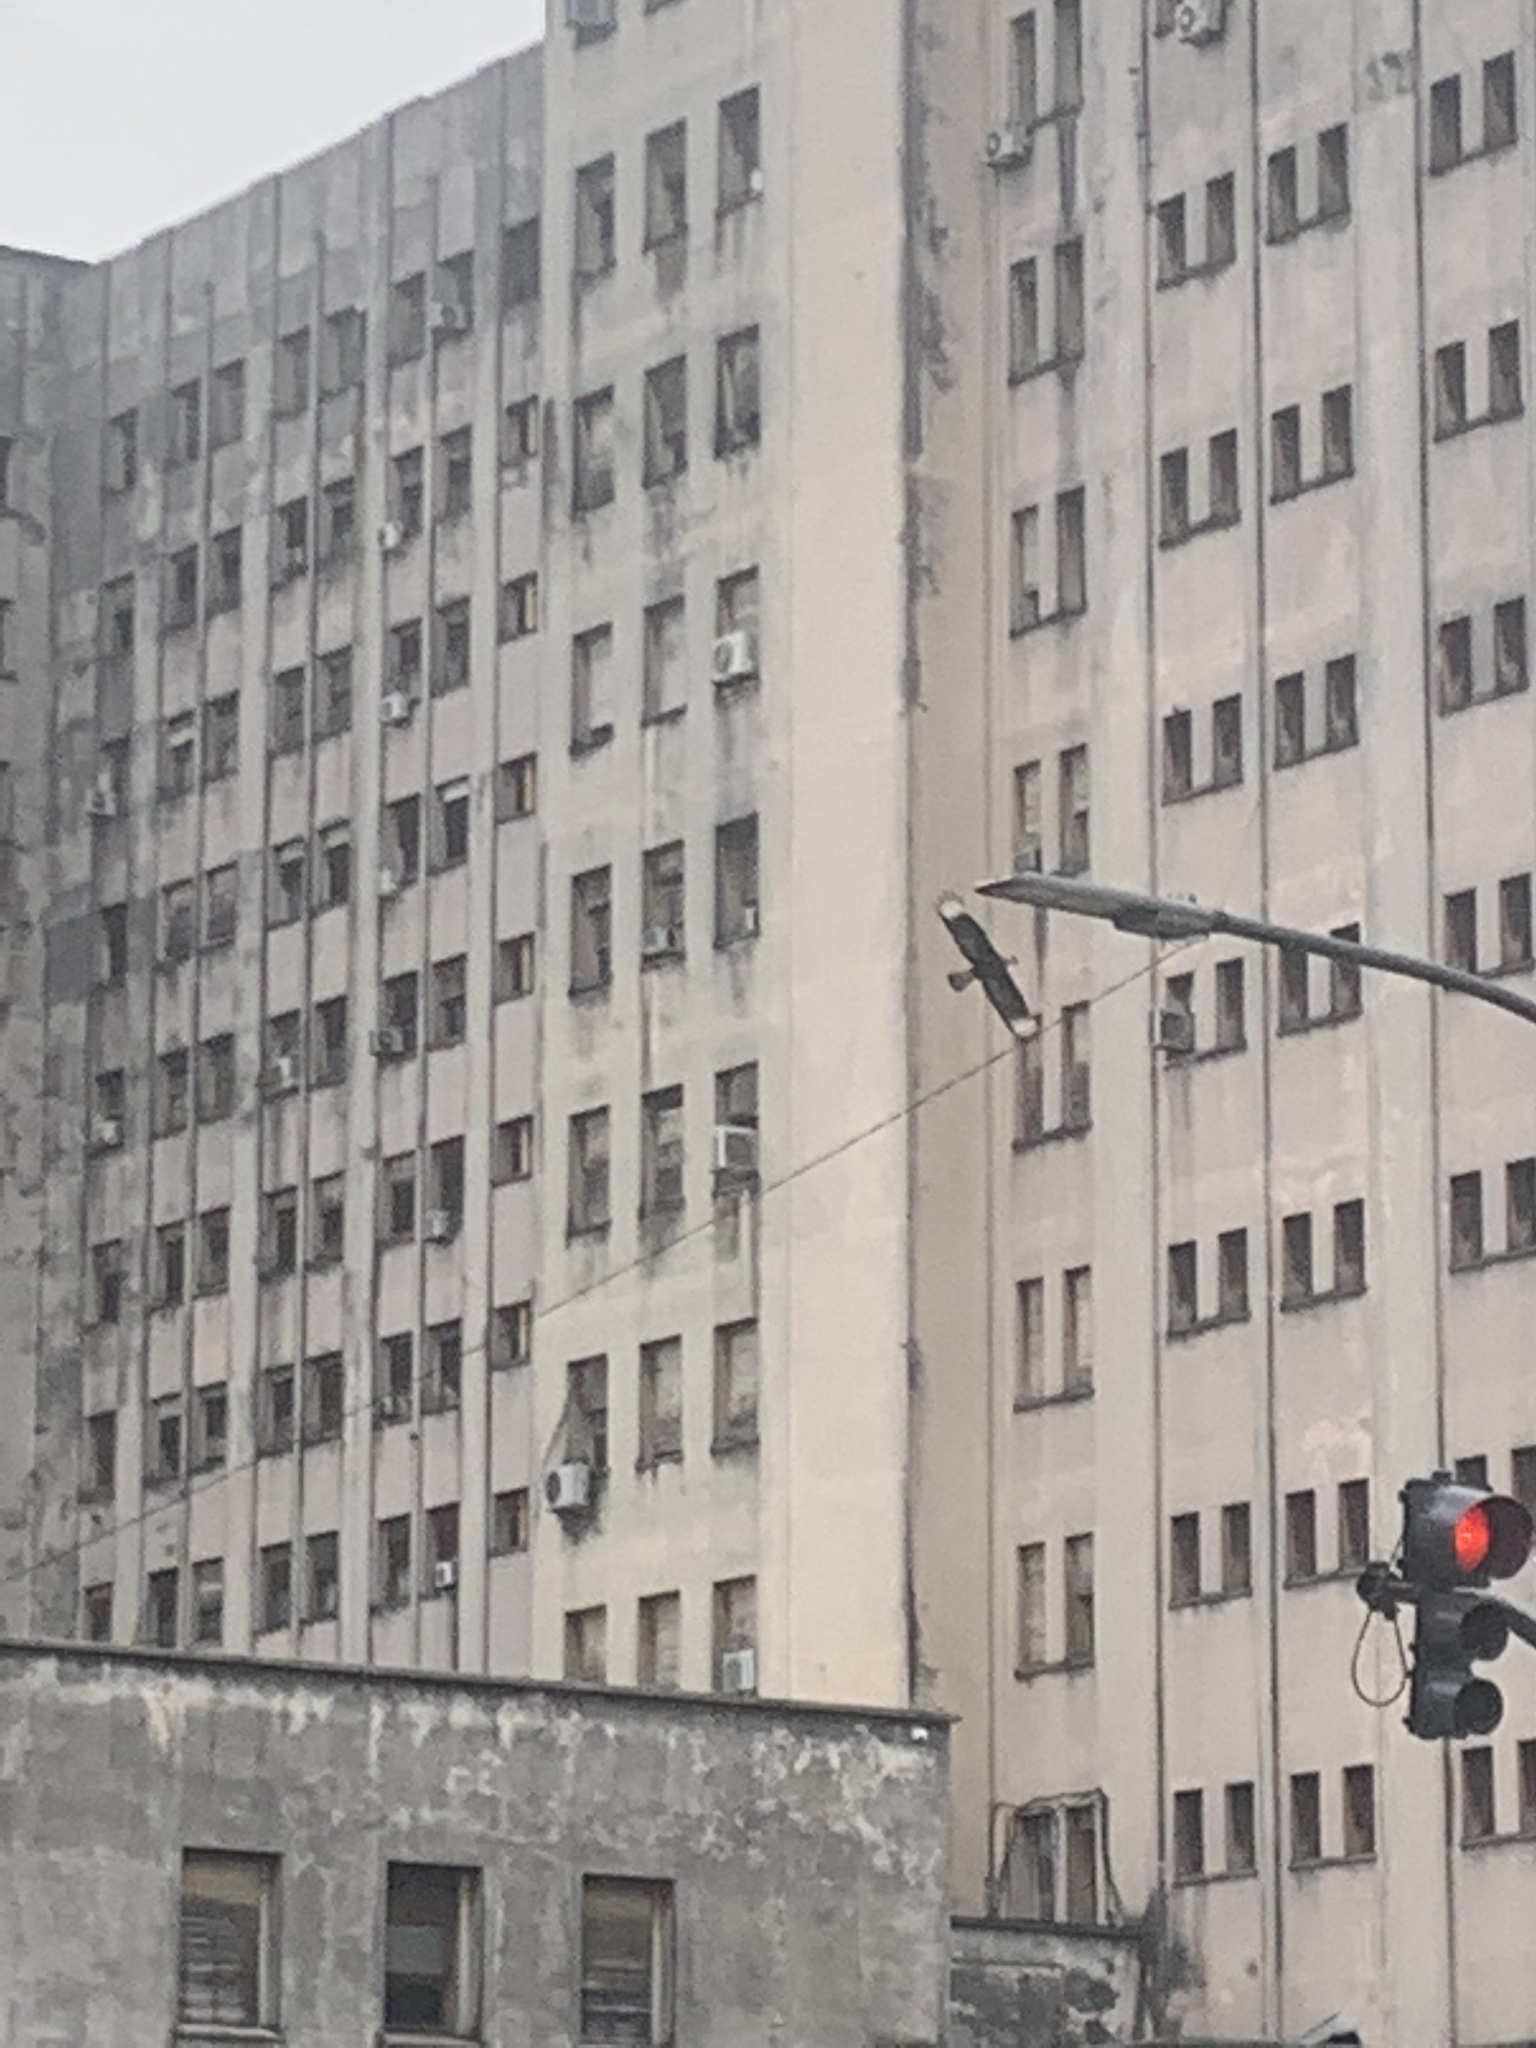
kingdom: Animalia
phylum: Chordata
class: Aves
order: Falconiformes
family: Falconidae
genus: Caracara
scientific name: Caracara plancus
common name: Southern caracara
